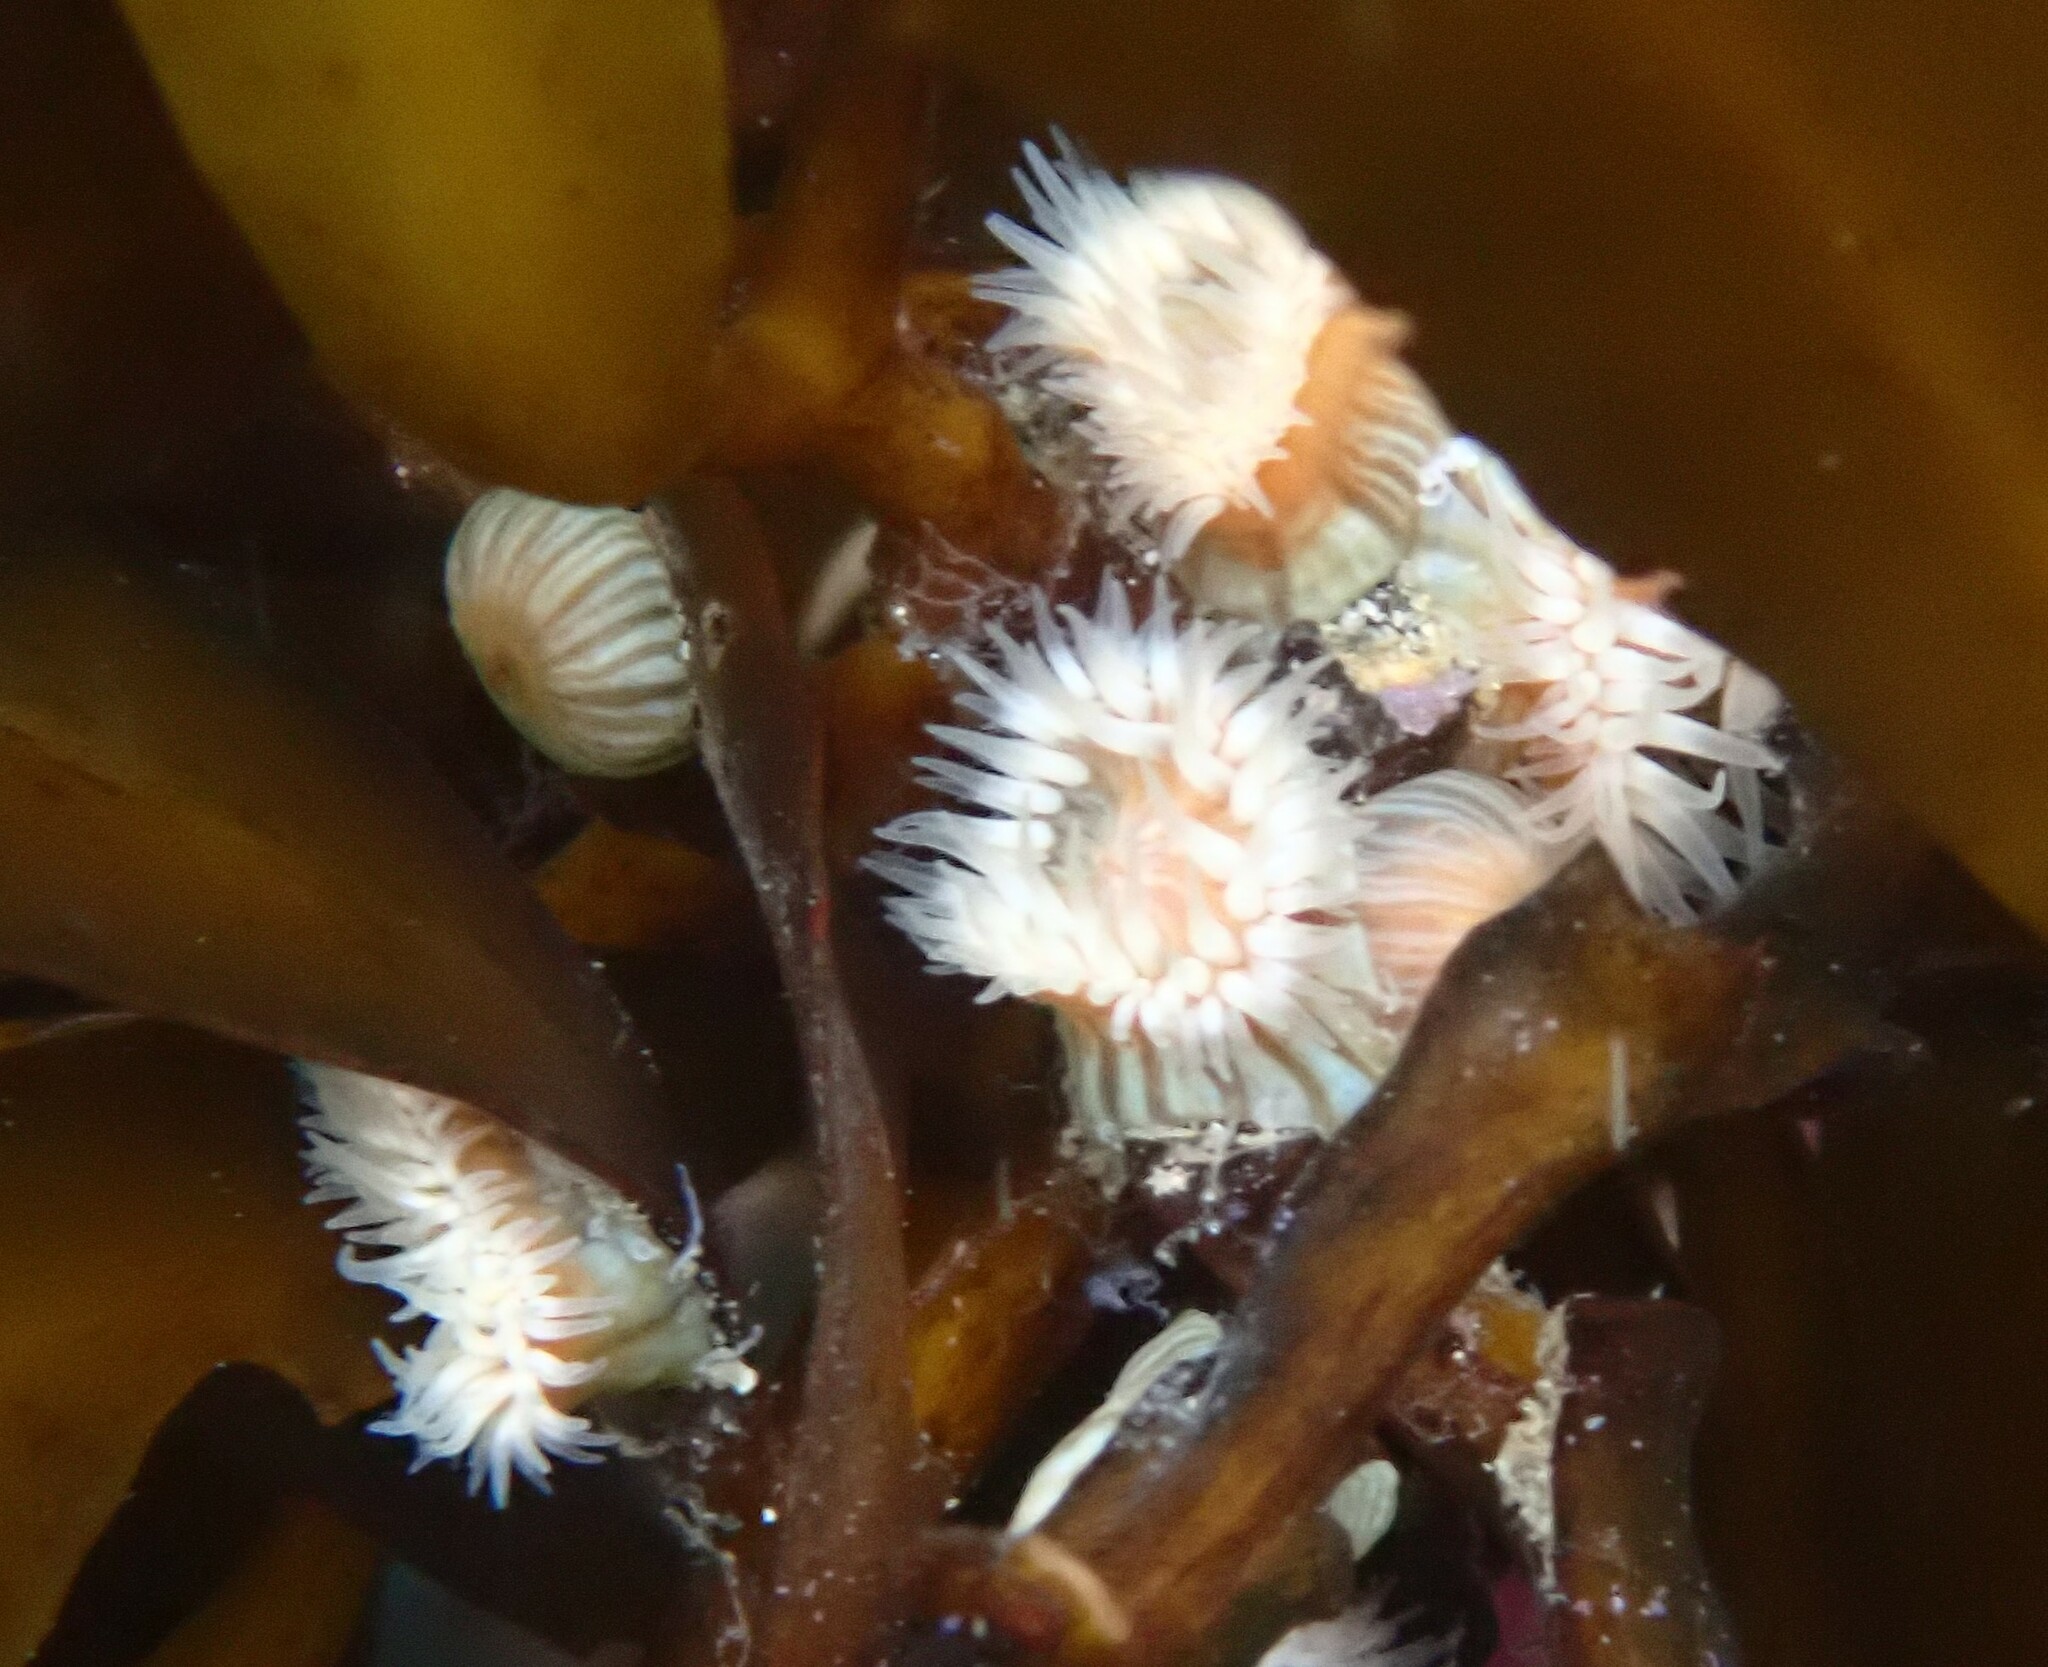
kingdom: Animalia
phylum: Cnidaria
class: Anthozoa
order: Actiniaria
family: Sagartiidae
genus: Anthothoe
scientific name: Anthothoe albocincta
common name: Orange striped anemone
